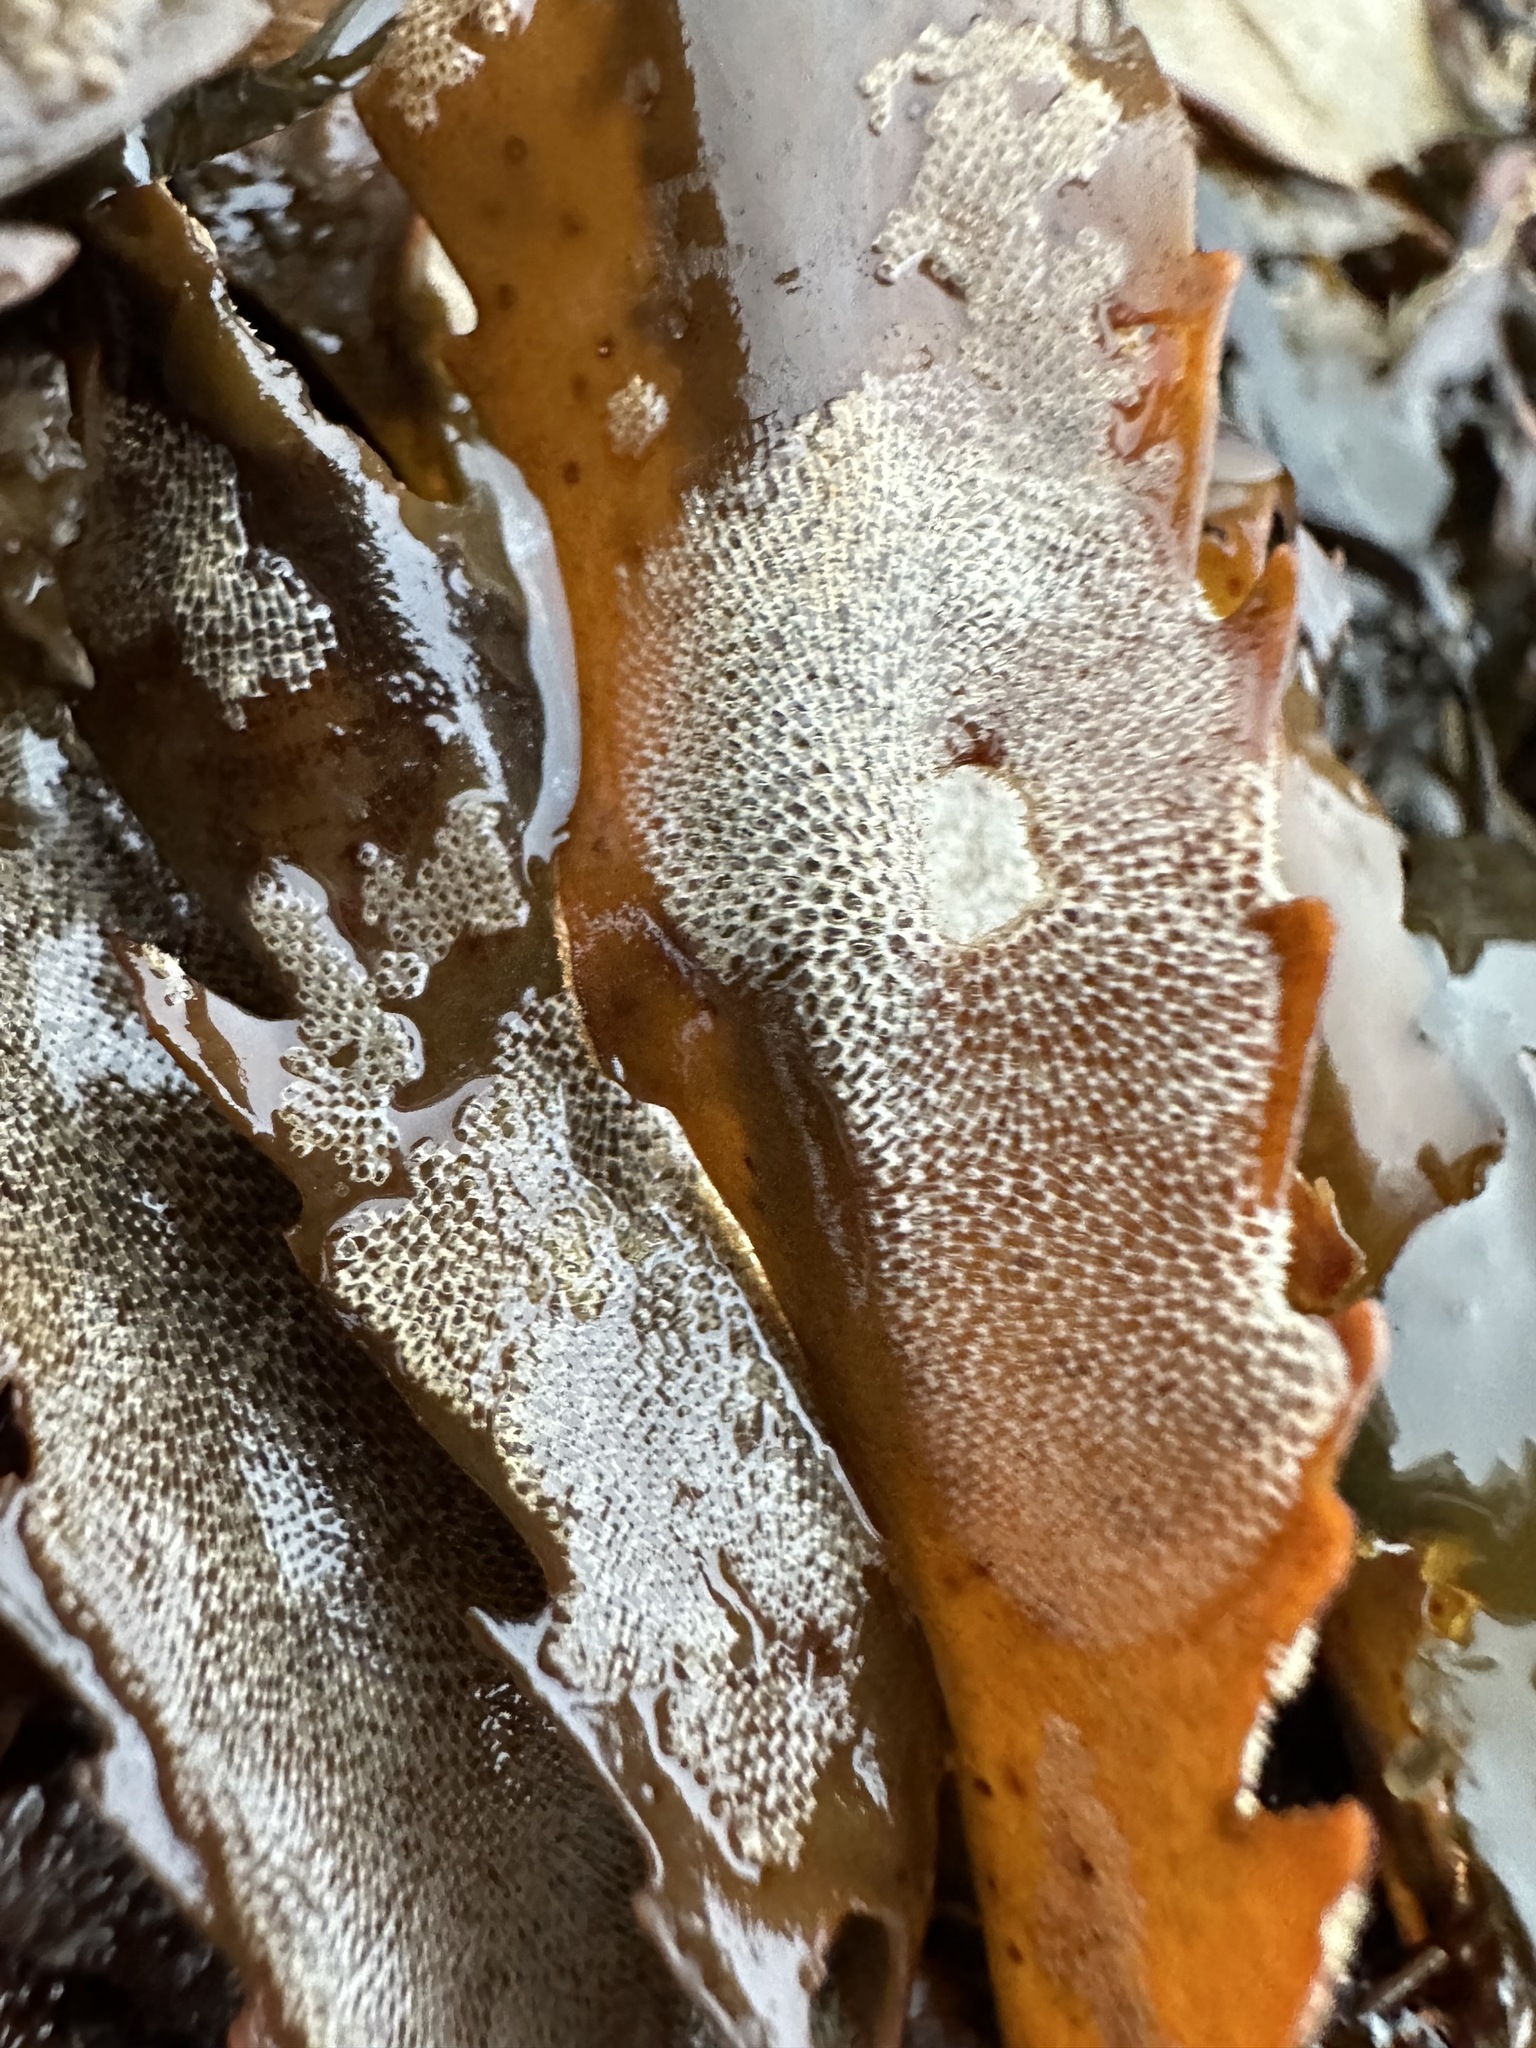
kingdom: Animalia
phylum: Bryozoa
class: Gymnolaemata
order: Cheilostomatida
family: Membraniporidae
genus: Membranipora
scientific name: Membranipora membranacea
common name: Sea mat
